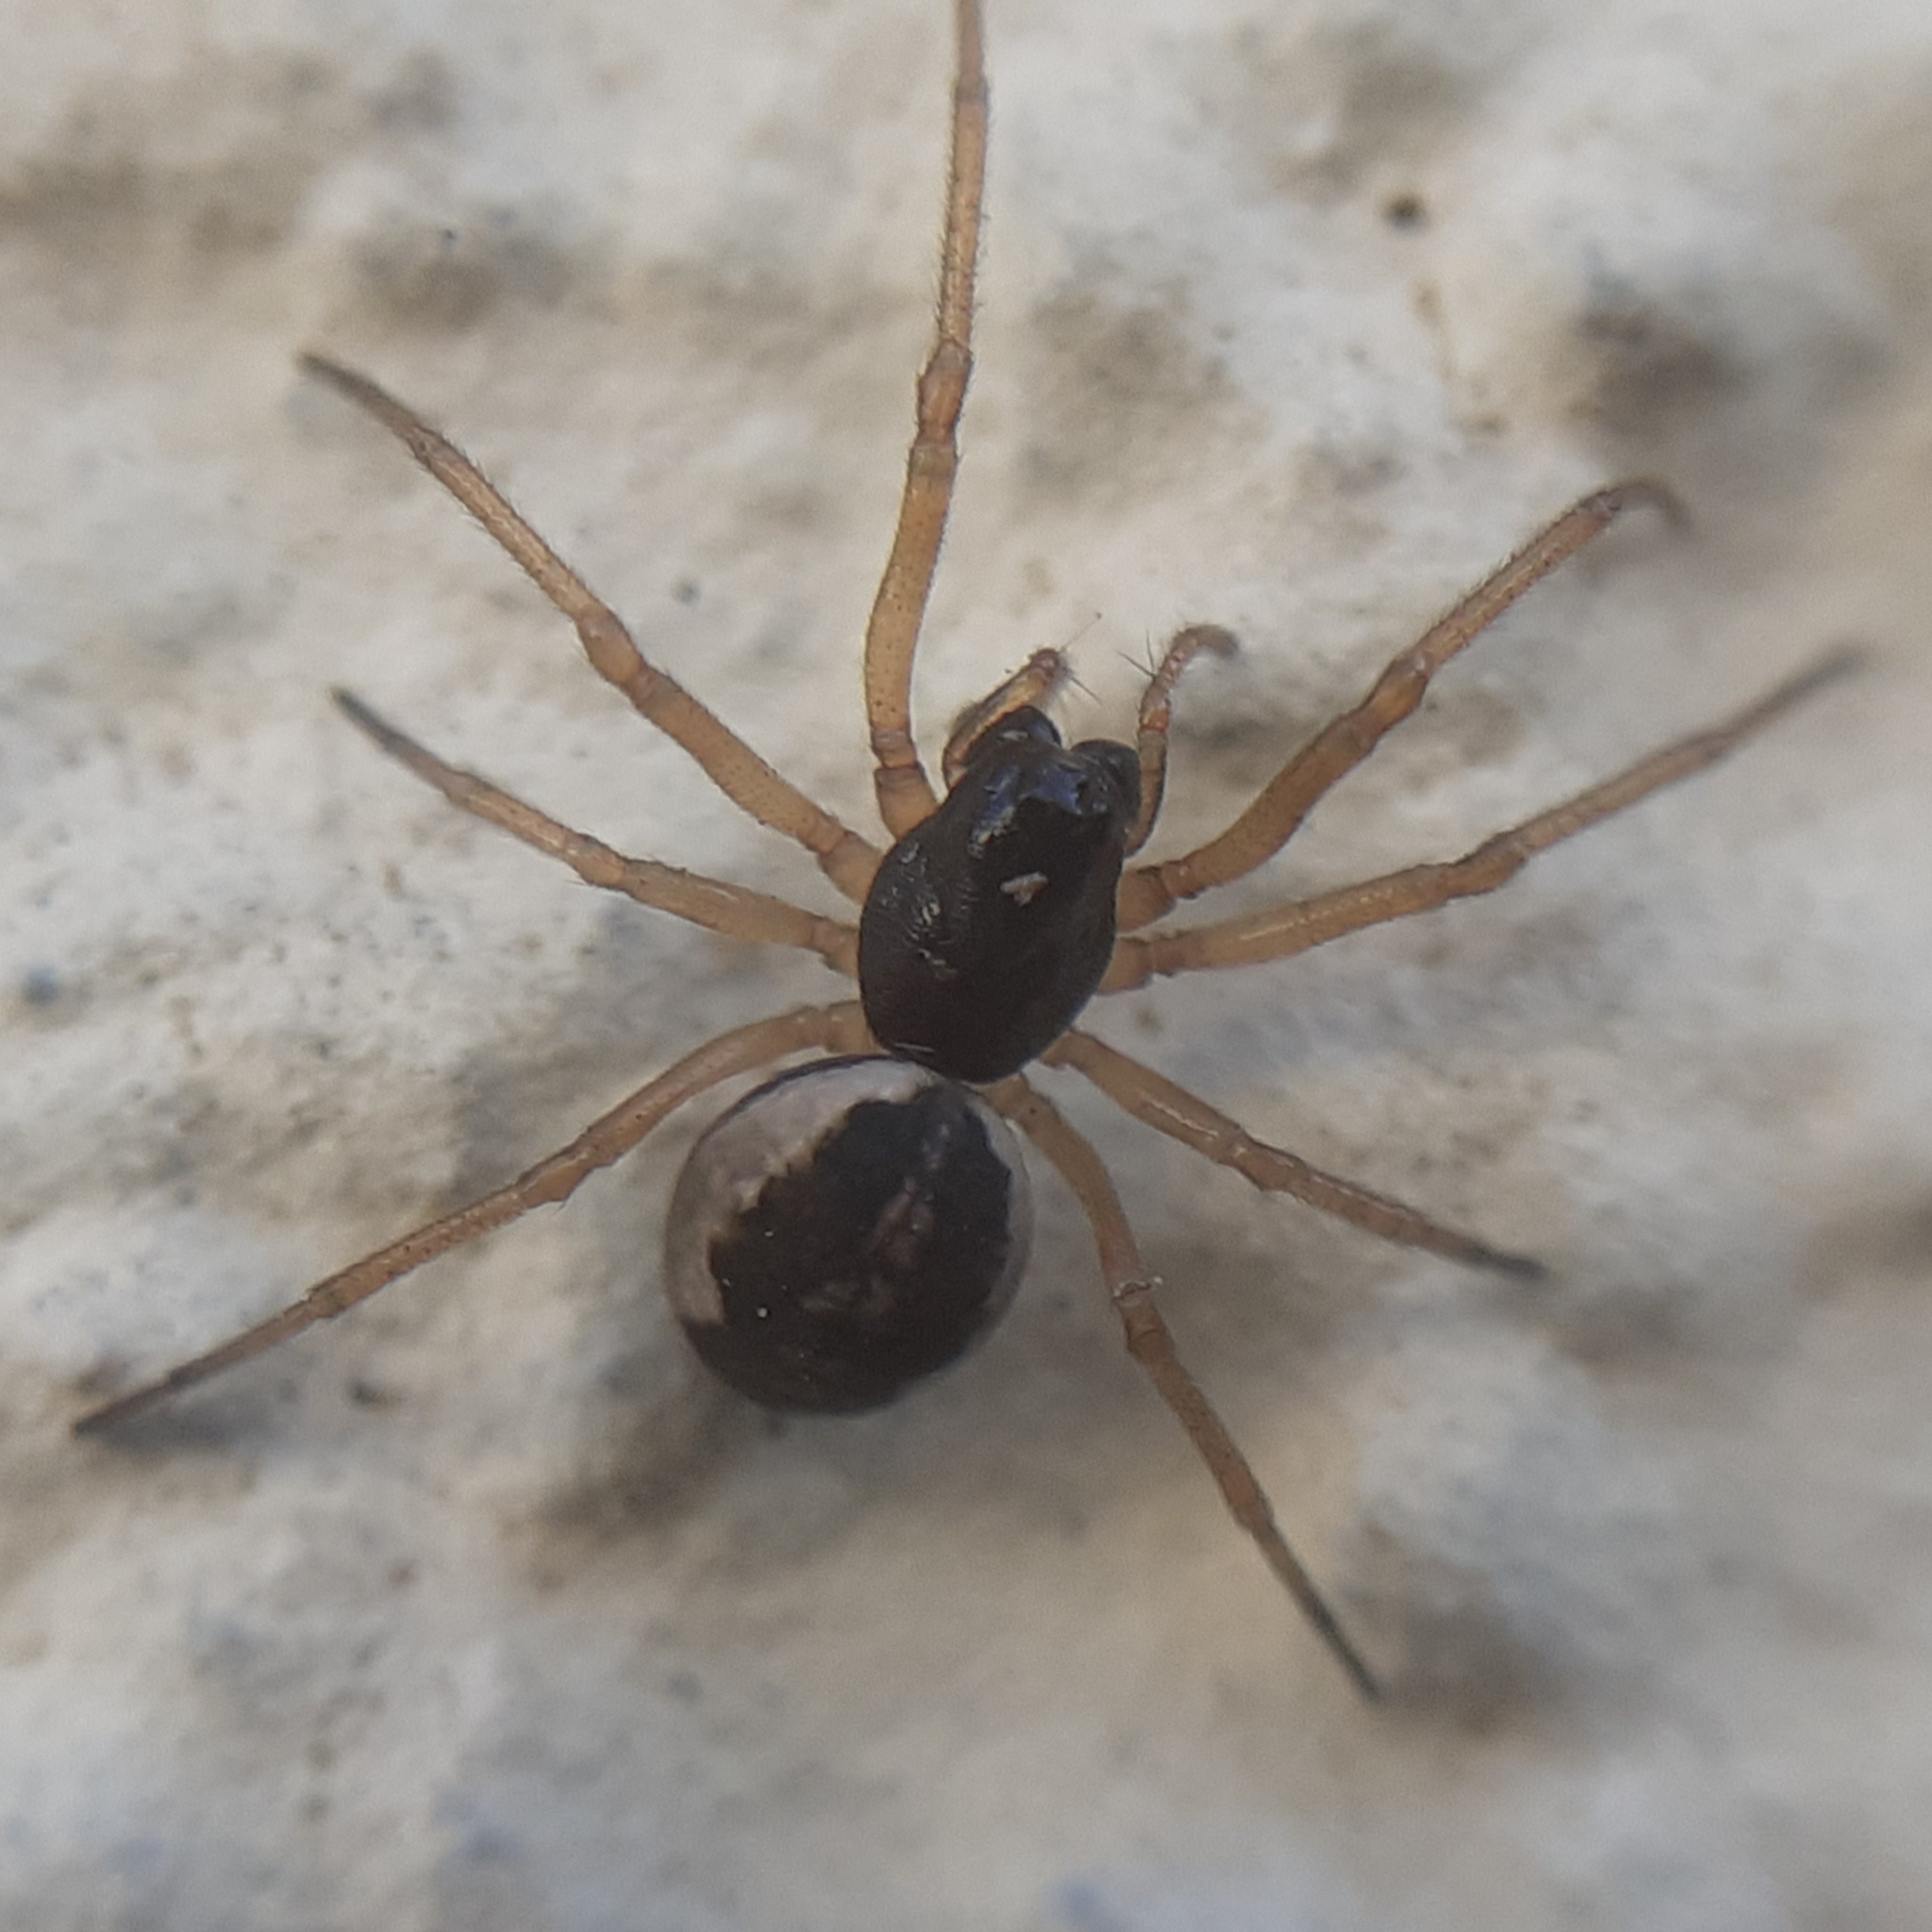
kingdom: Animalia
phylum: Arthropoda
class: Arachnida
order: Araneae
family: Tetragnathidae
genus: Pachygnatha
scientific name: Pachygnatha degeeri
